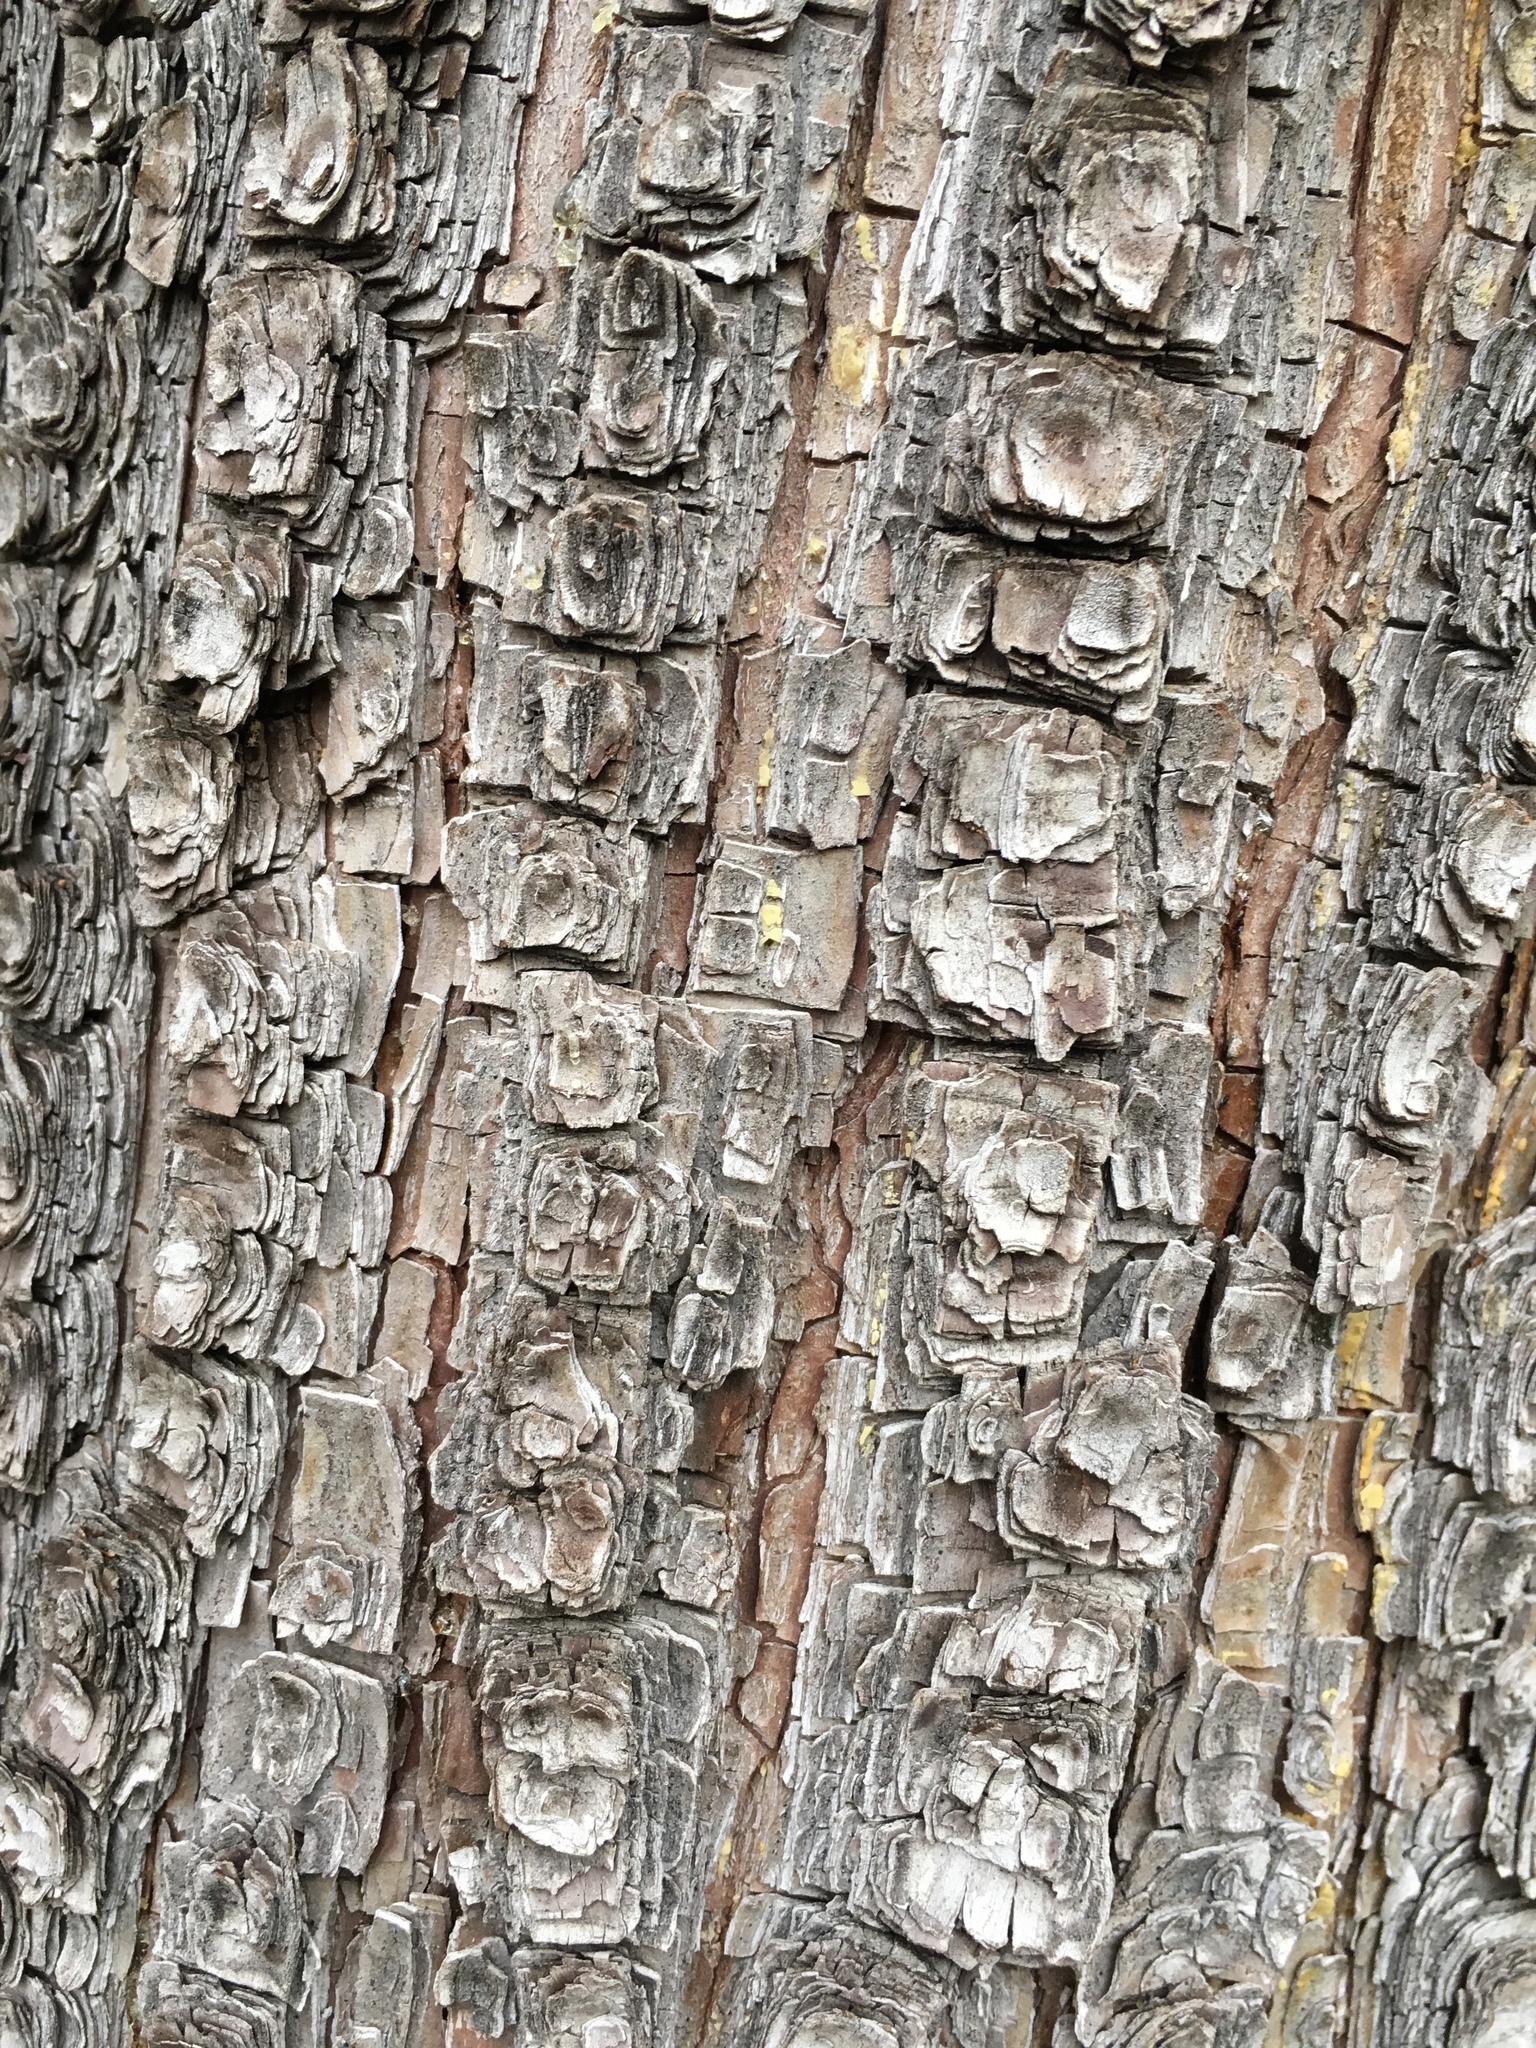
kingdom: Plantae
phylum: Tracheophyta
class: Pinopsida
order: Pinales
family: Cupressaceae
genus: Juniperus
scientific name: Juniperus deppeana
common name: Alligator juniper
